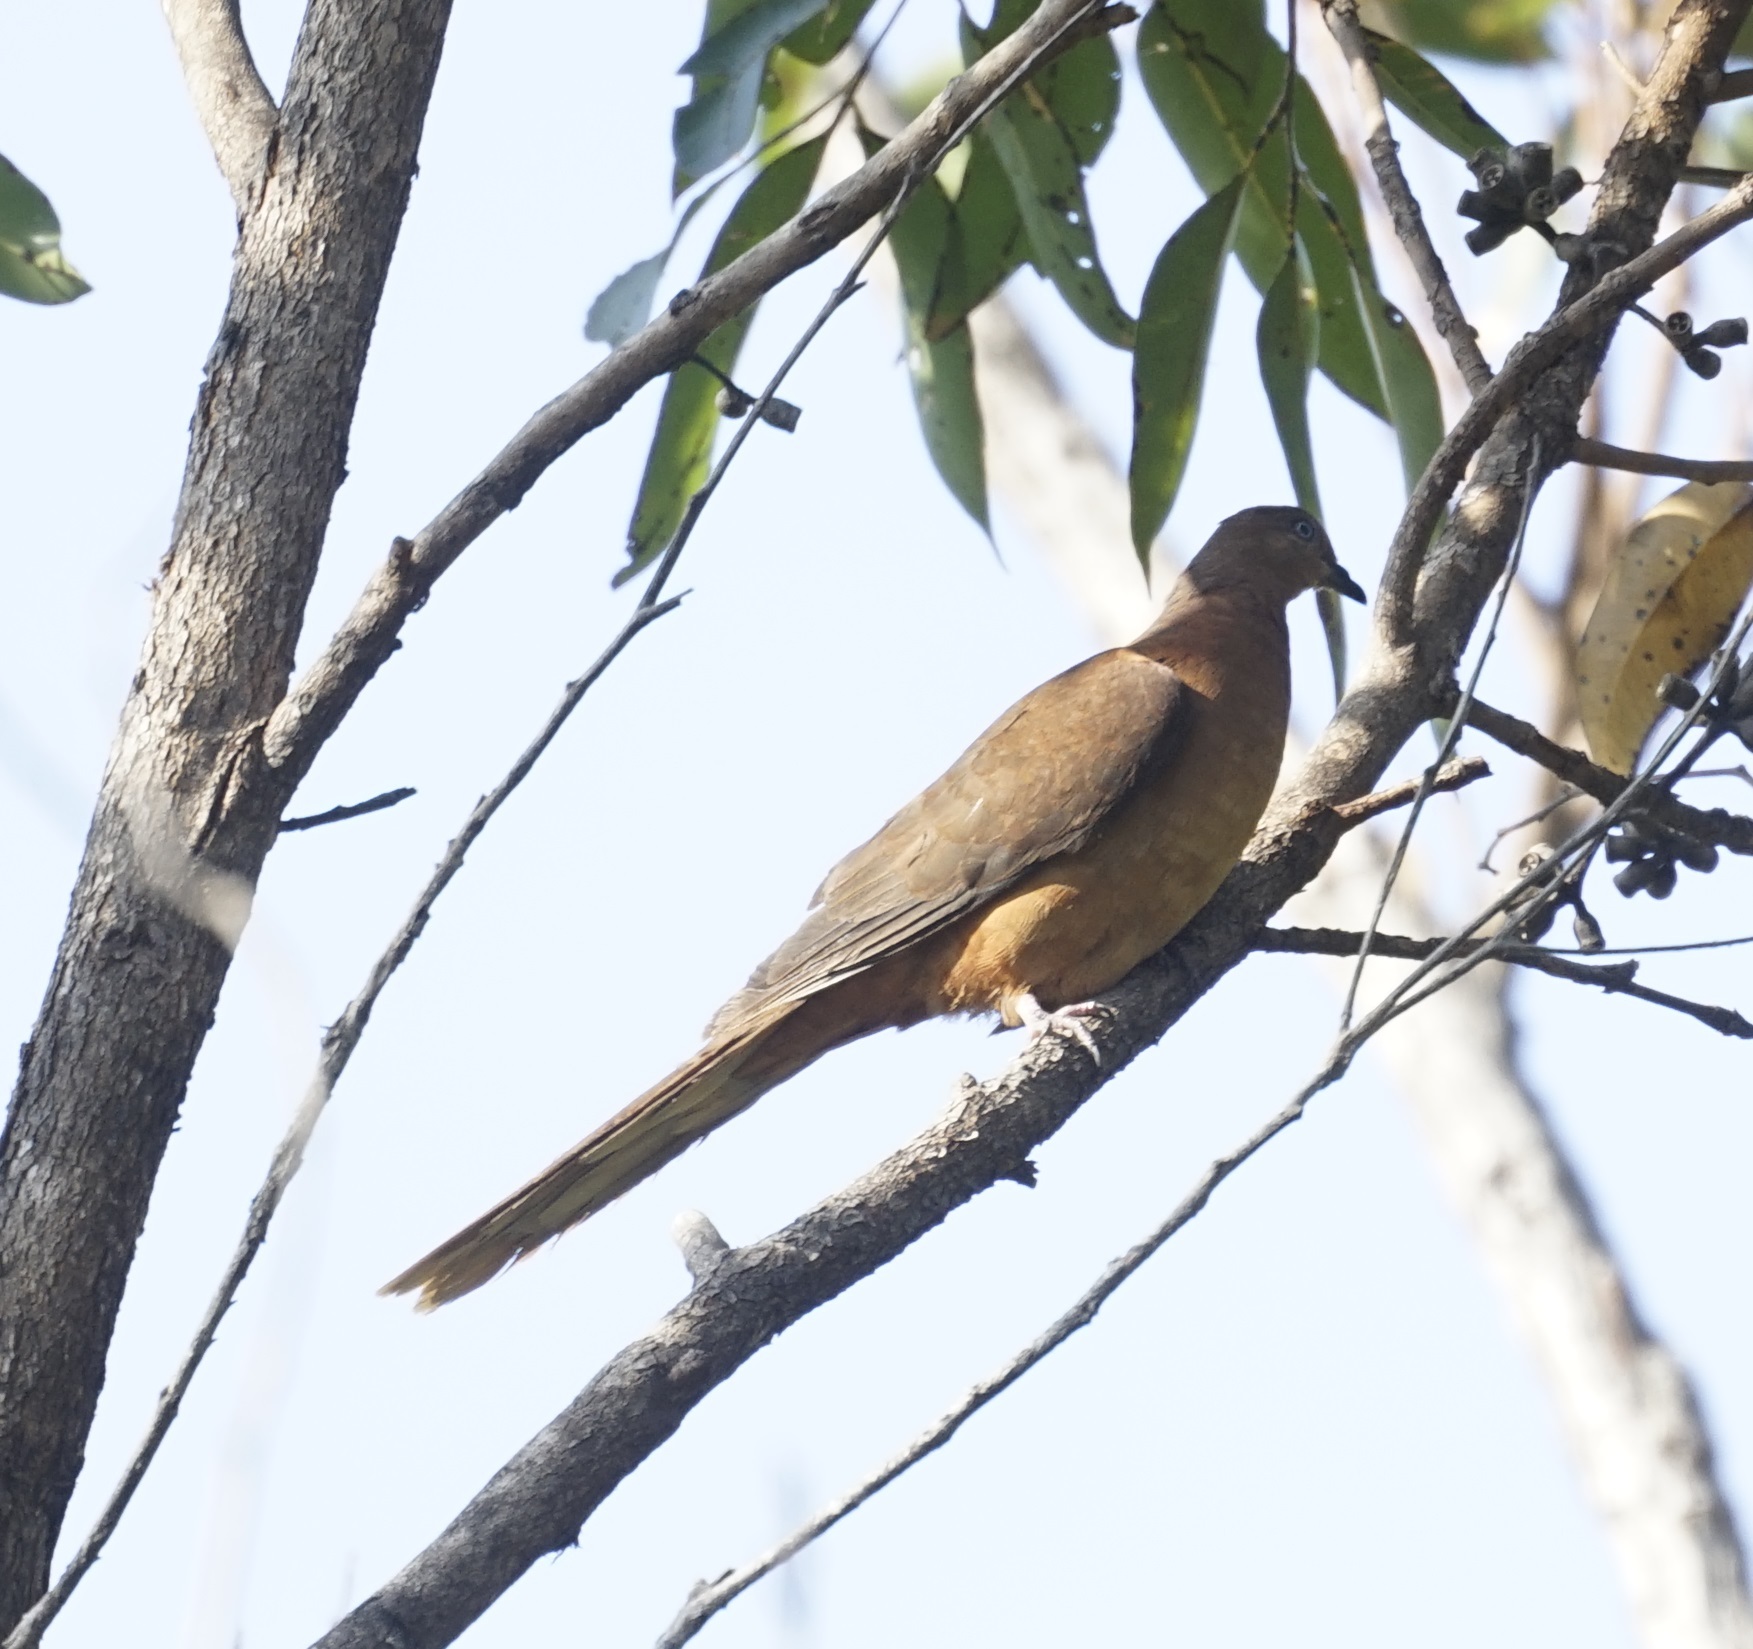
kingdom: Animalia
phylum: Chordata
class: Aves
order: Columbiformes
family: Columbidae
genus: Macropygia
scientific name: Macropygia phasianella
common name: Brown cuckoo-dove
